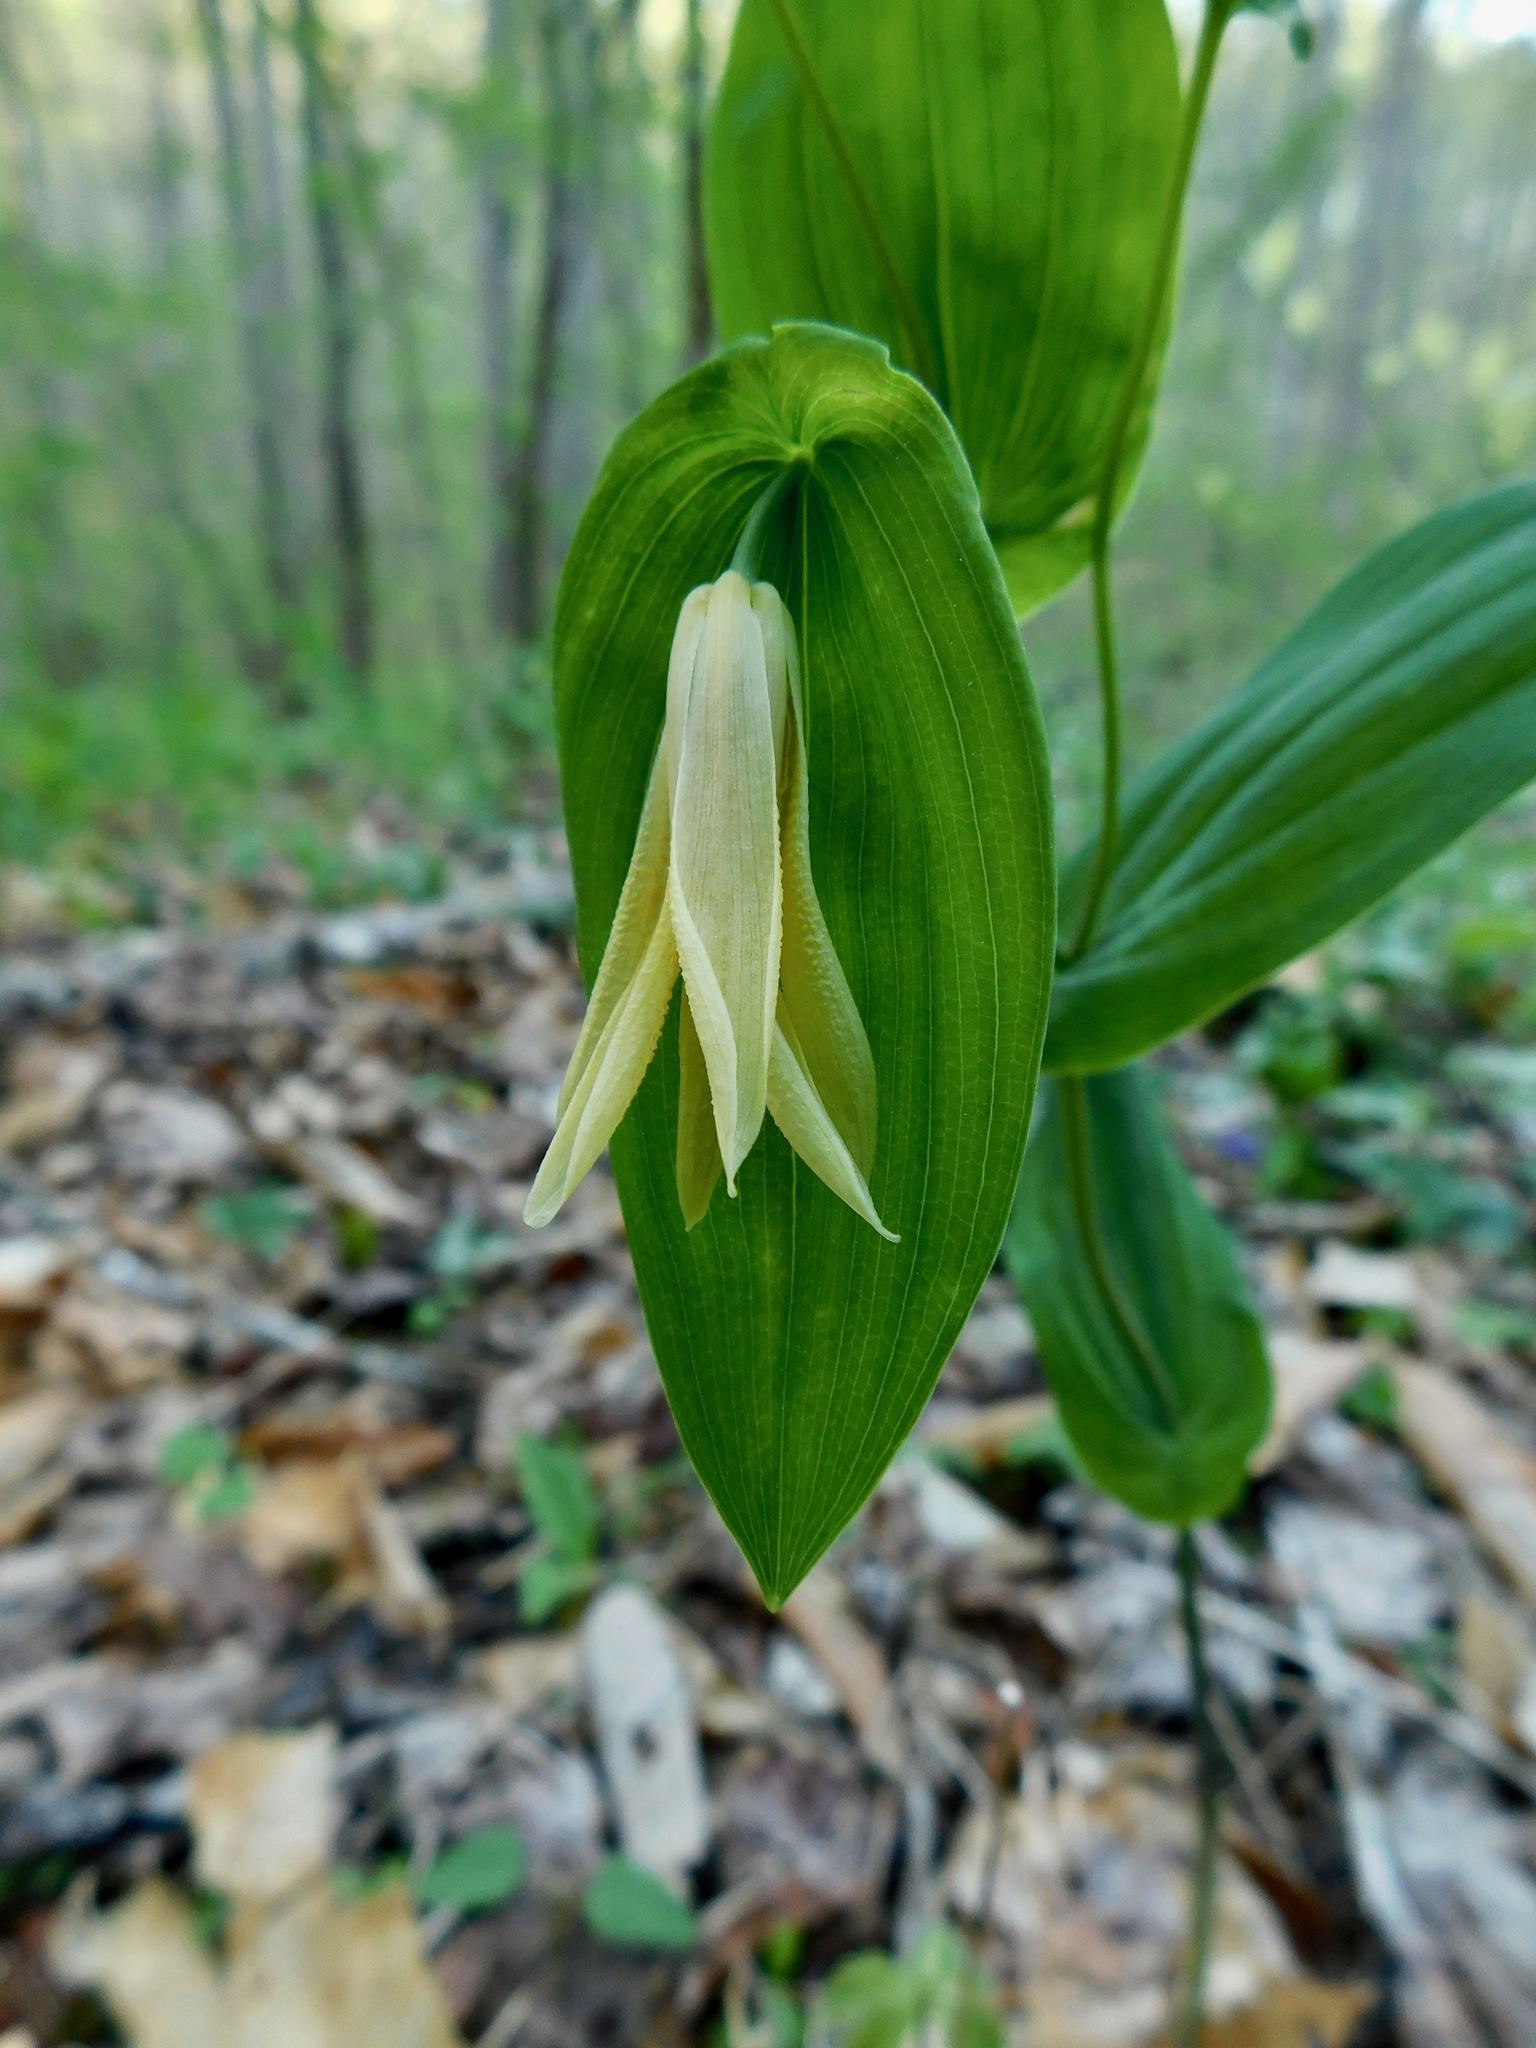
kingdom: Plantae
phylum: Tracheophyta
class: Liliopsida
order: Liliales
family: Colchicaceae
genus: Uvularia
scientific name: Uvularia perfoliata
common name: Perfoliate bellwort
